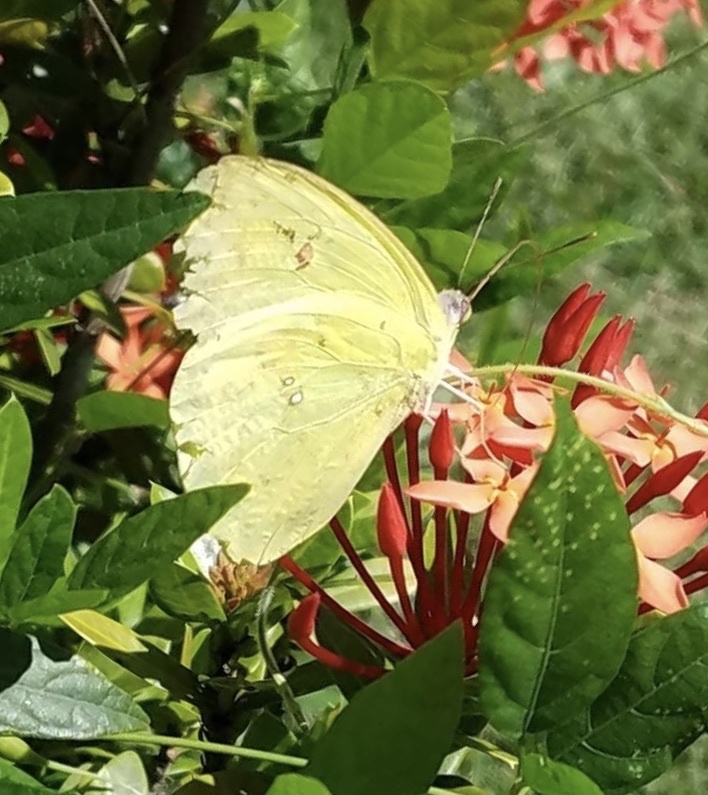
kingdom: Animalia
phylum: Arthropoda
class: Insecta
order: Lepidoptera
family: Pieridae
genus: Phoebis
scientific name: Phoebis sennae
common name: Cloudless sulphur
